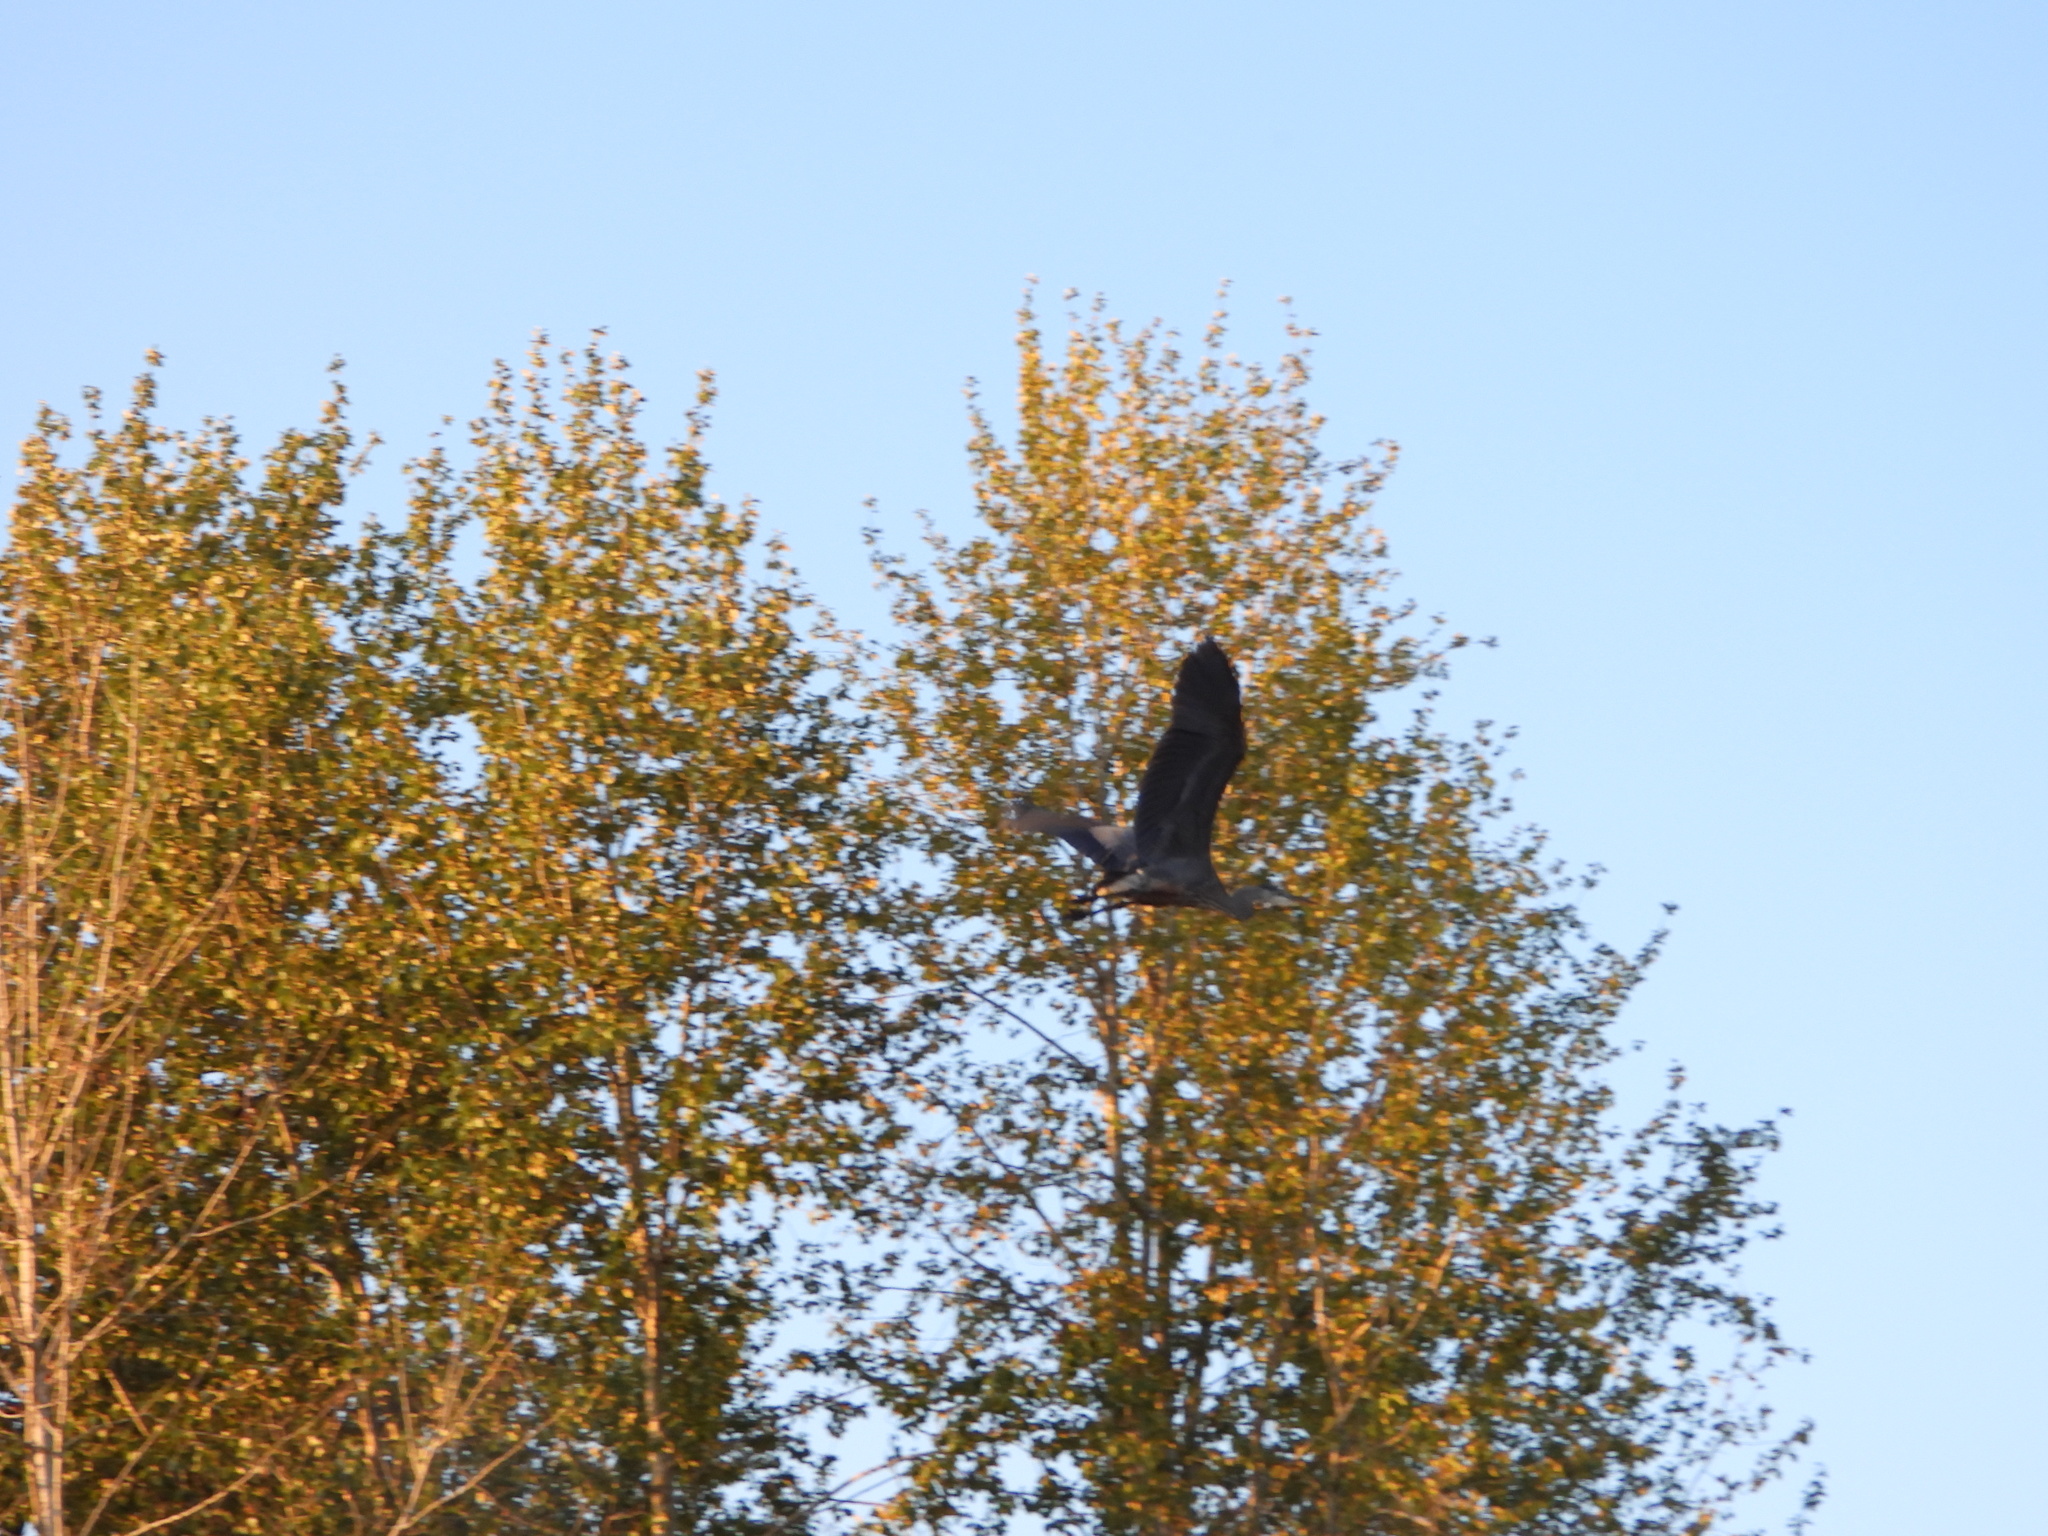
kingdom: Animalia
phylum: Chordata
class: Aves
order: Pelecaniformes
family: Ardeidae
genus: Ardea
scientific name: Ardea herodias
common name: Great blue heron
